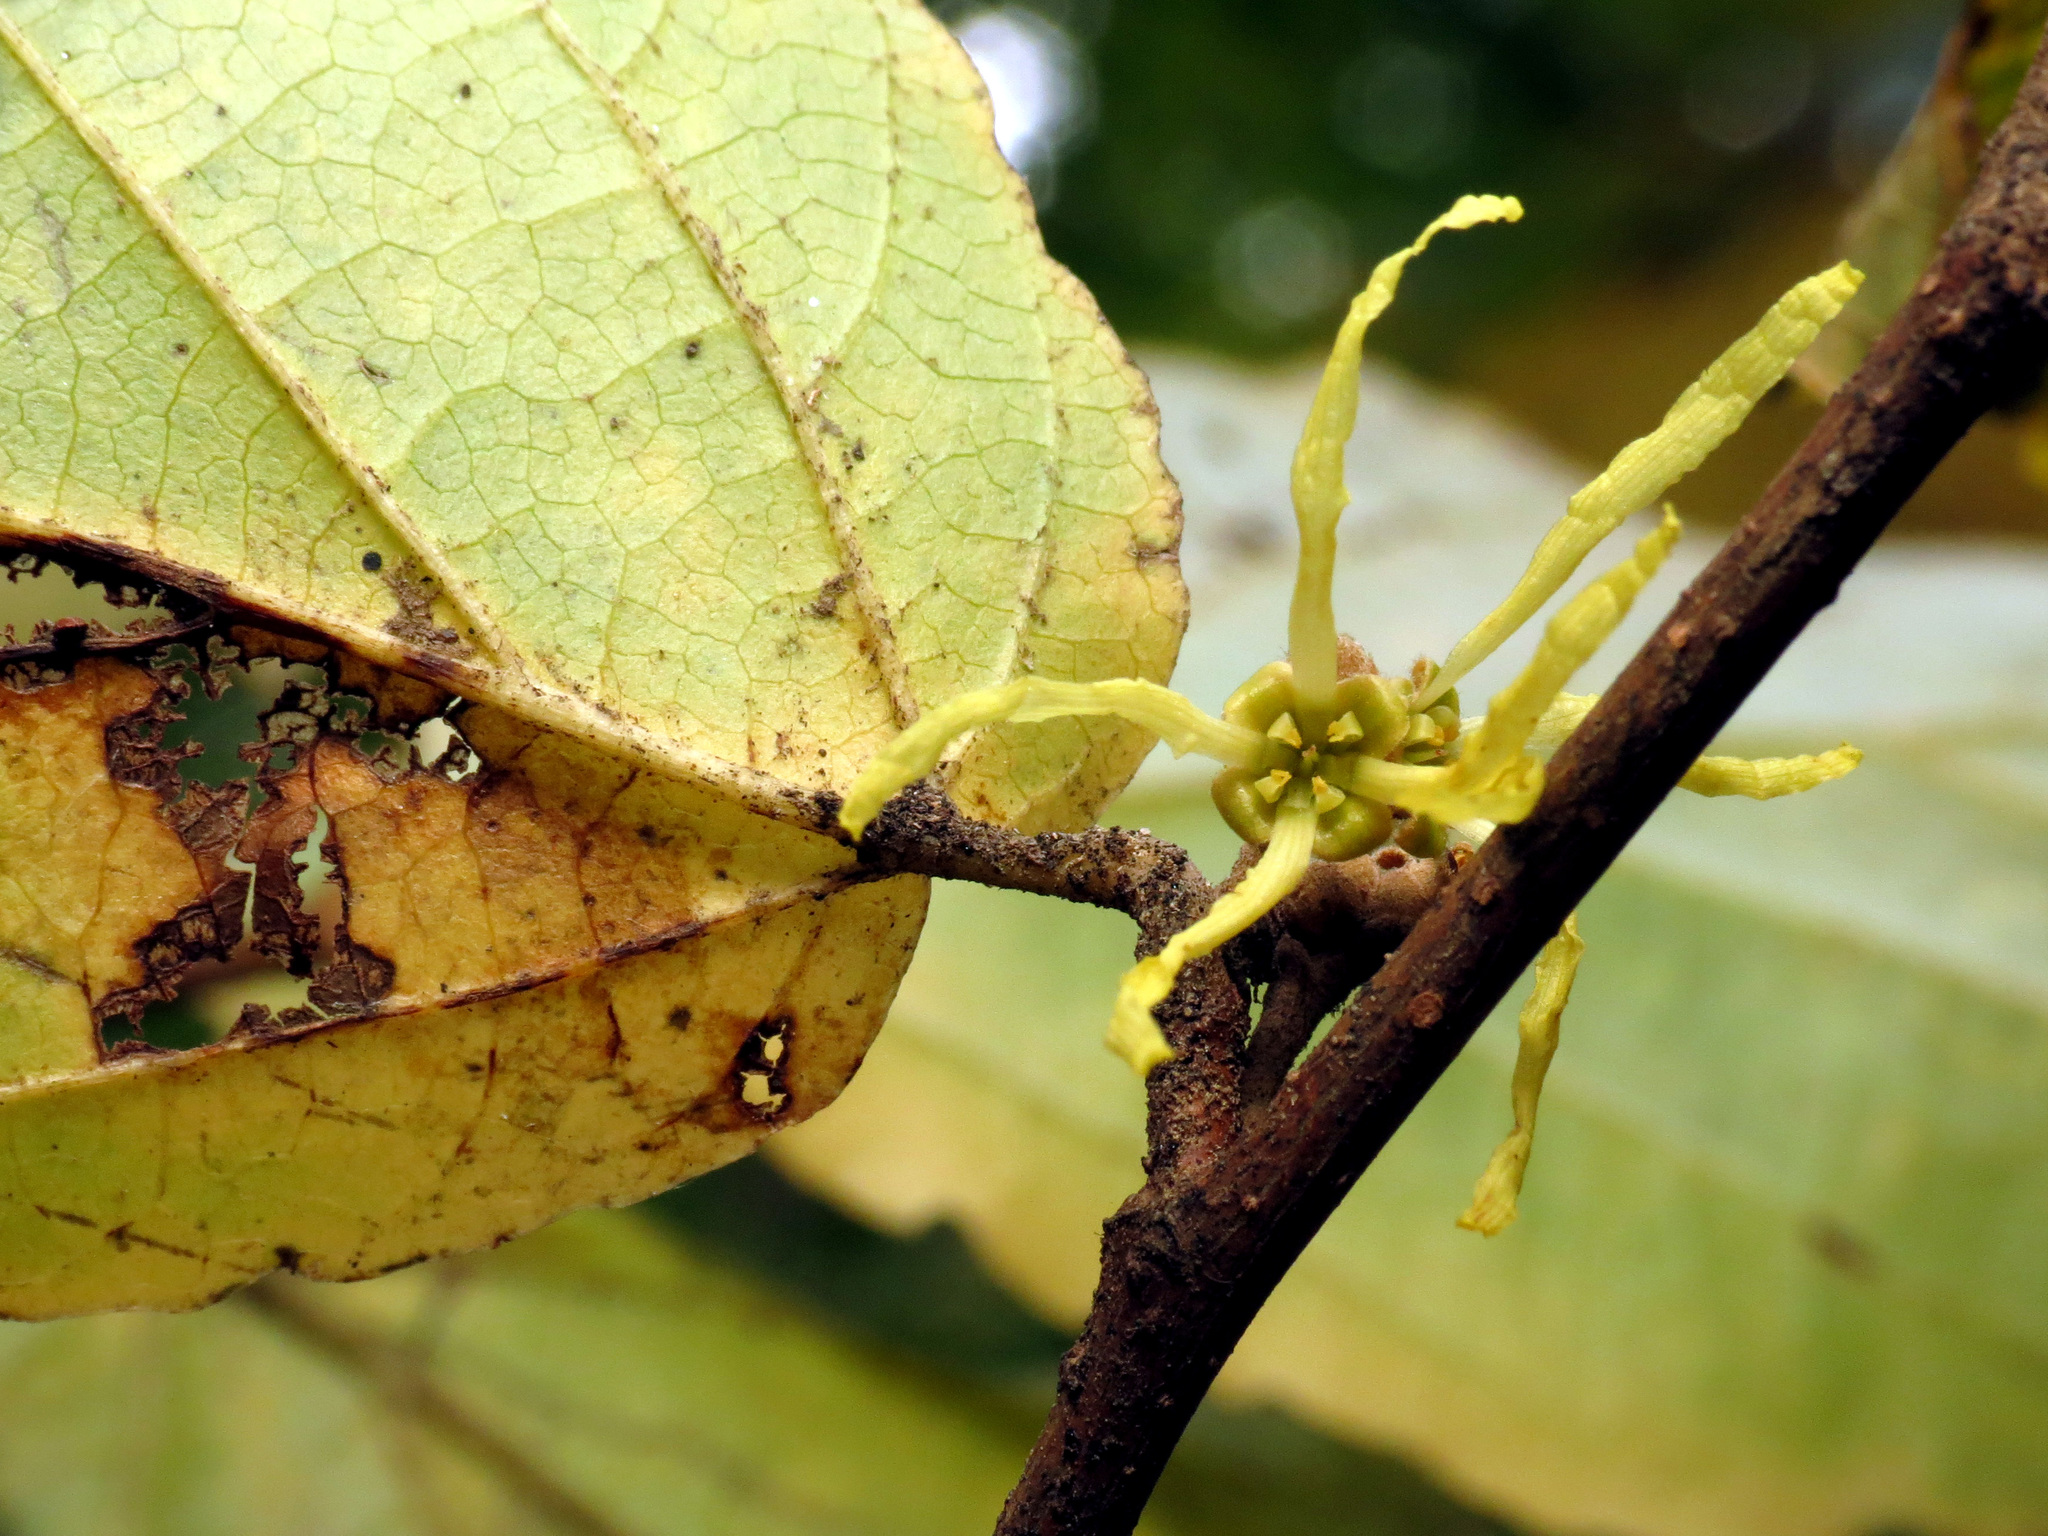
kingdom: Plantae
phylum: Tracheophyta
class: Magnoliopsida
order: Saxifragales
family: Hamamelidaceae
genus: Hamamelis
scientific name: Hamamelis virginiana
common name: Witch-hazel
